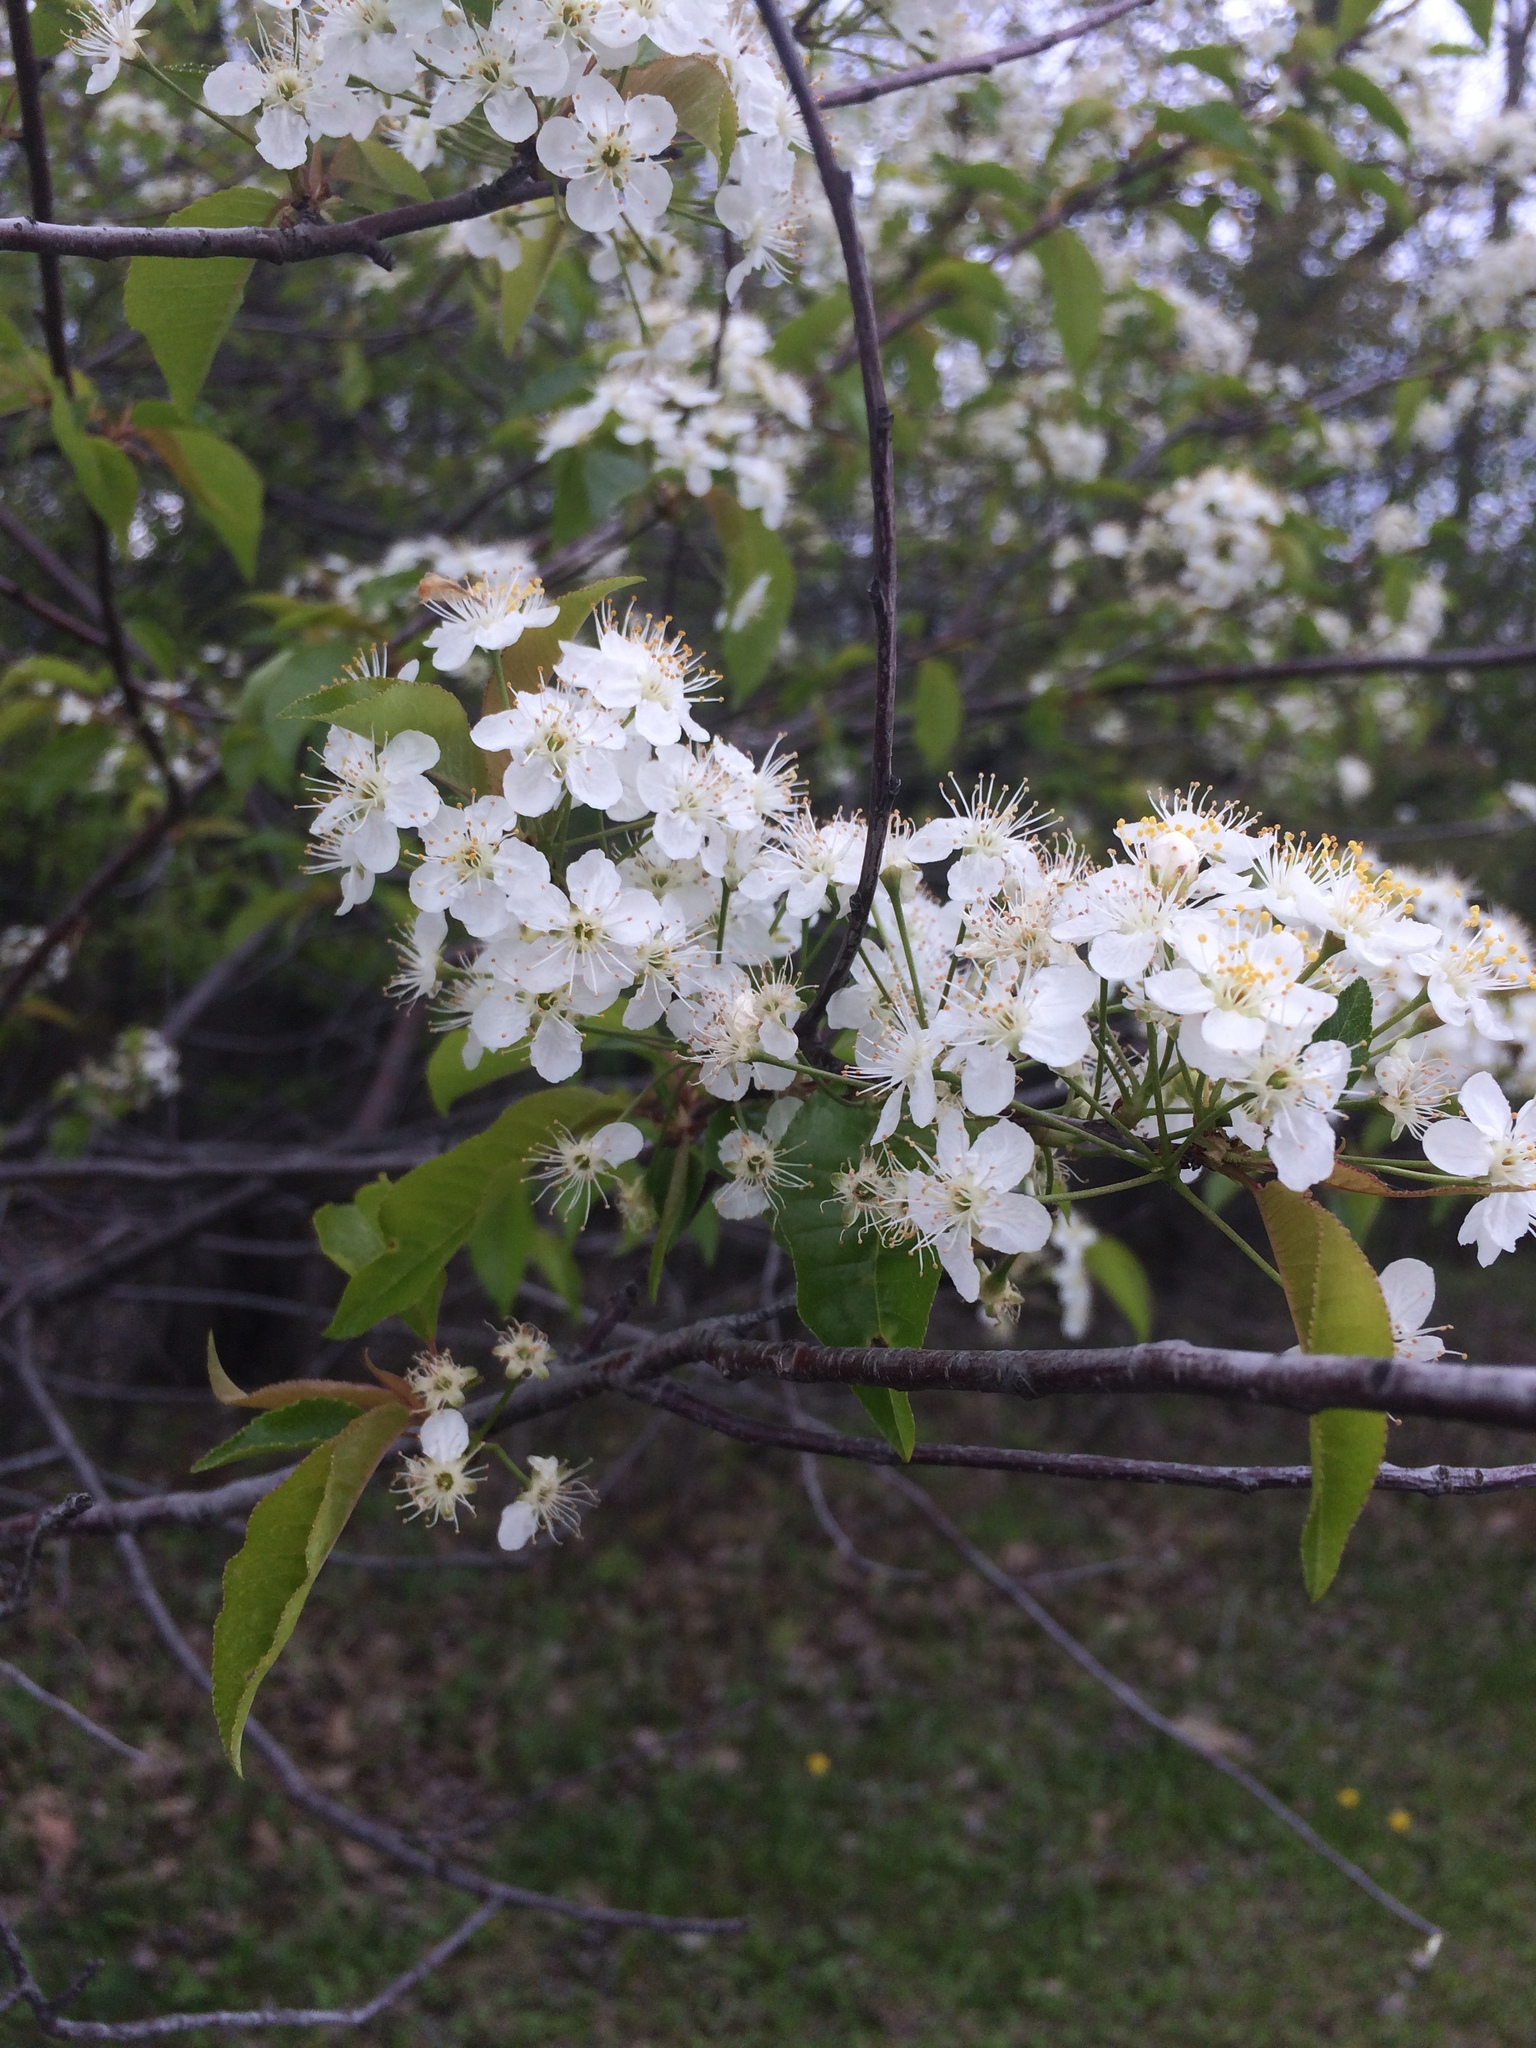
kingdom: Plantae
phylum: Tracheophyta
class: Magnoliopsida
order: Rosales
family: Rosaceae
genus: Prunus
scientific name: Prunus pensylvanica
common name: Pin cherry
